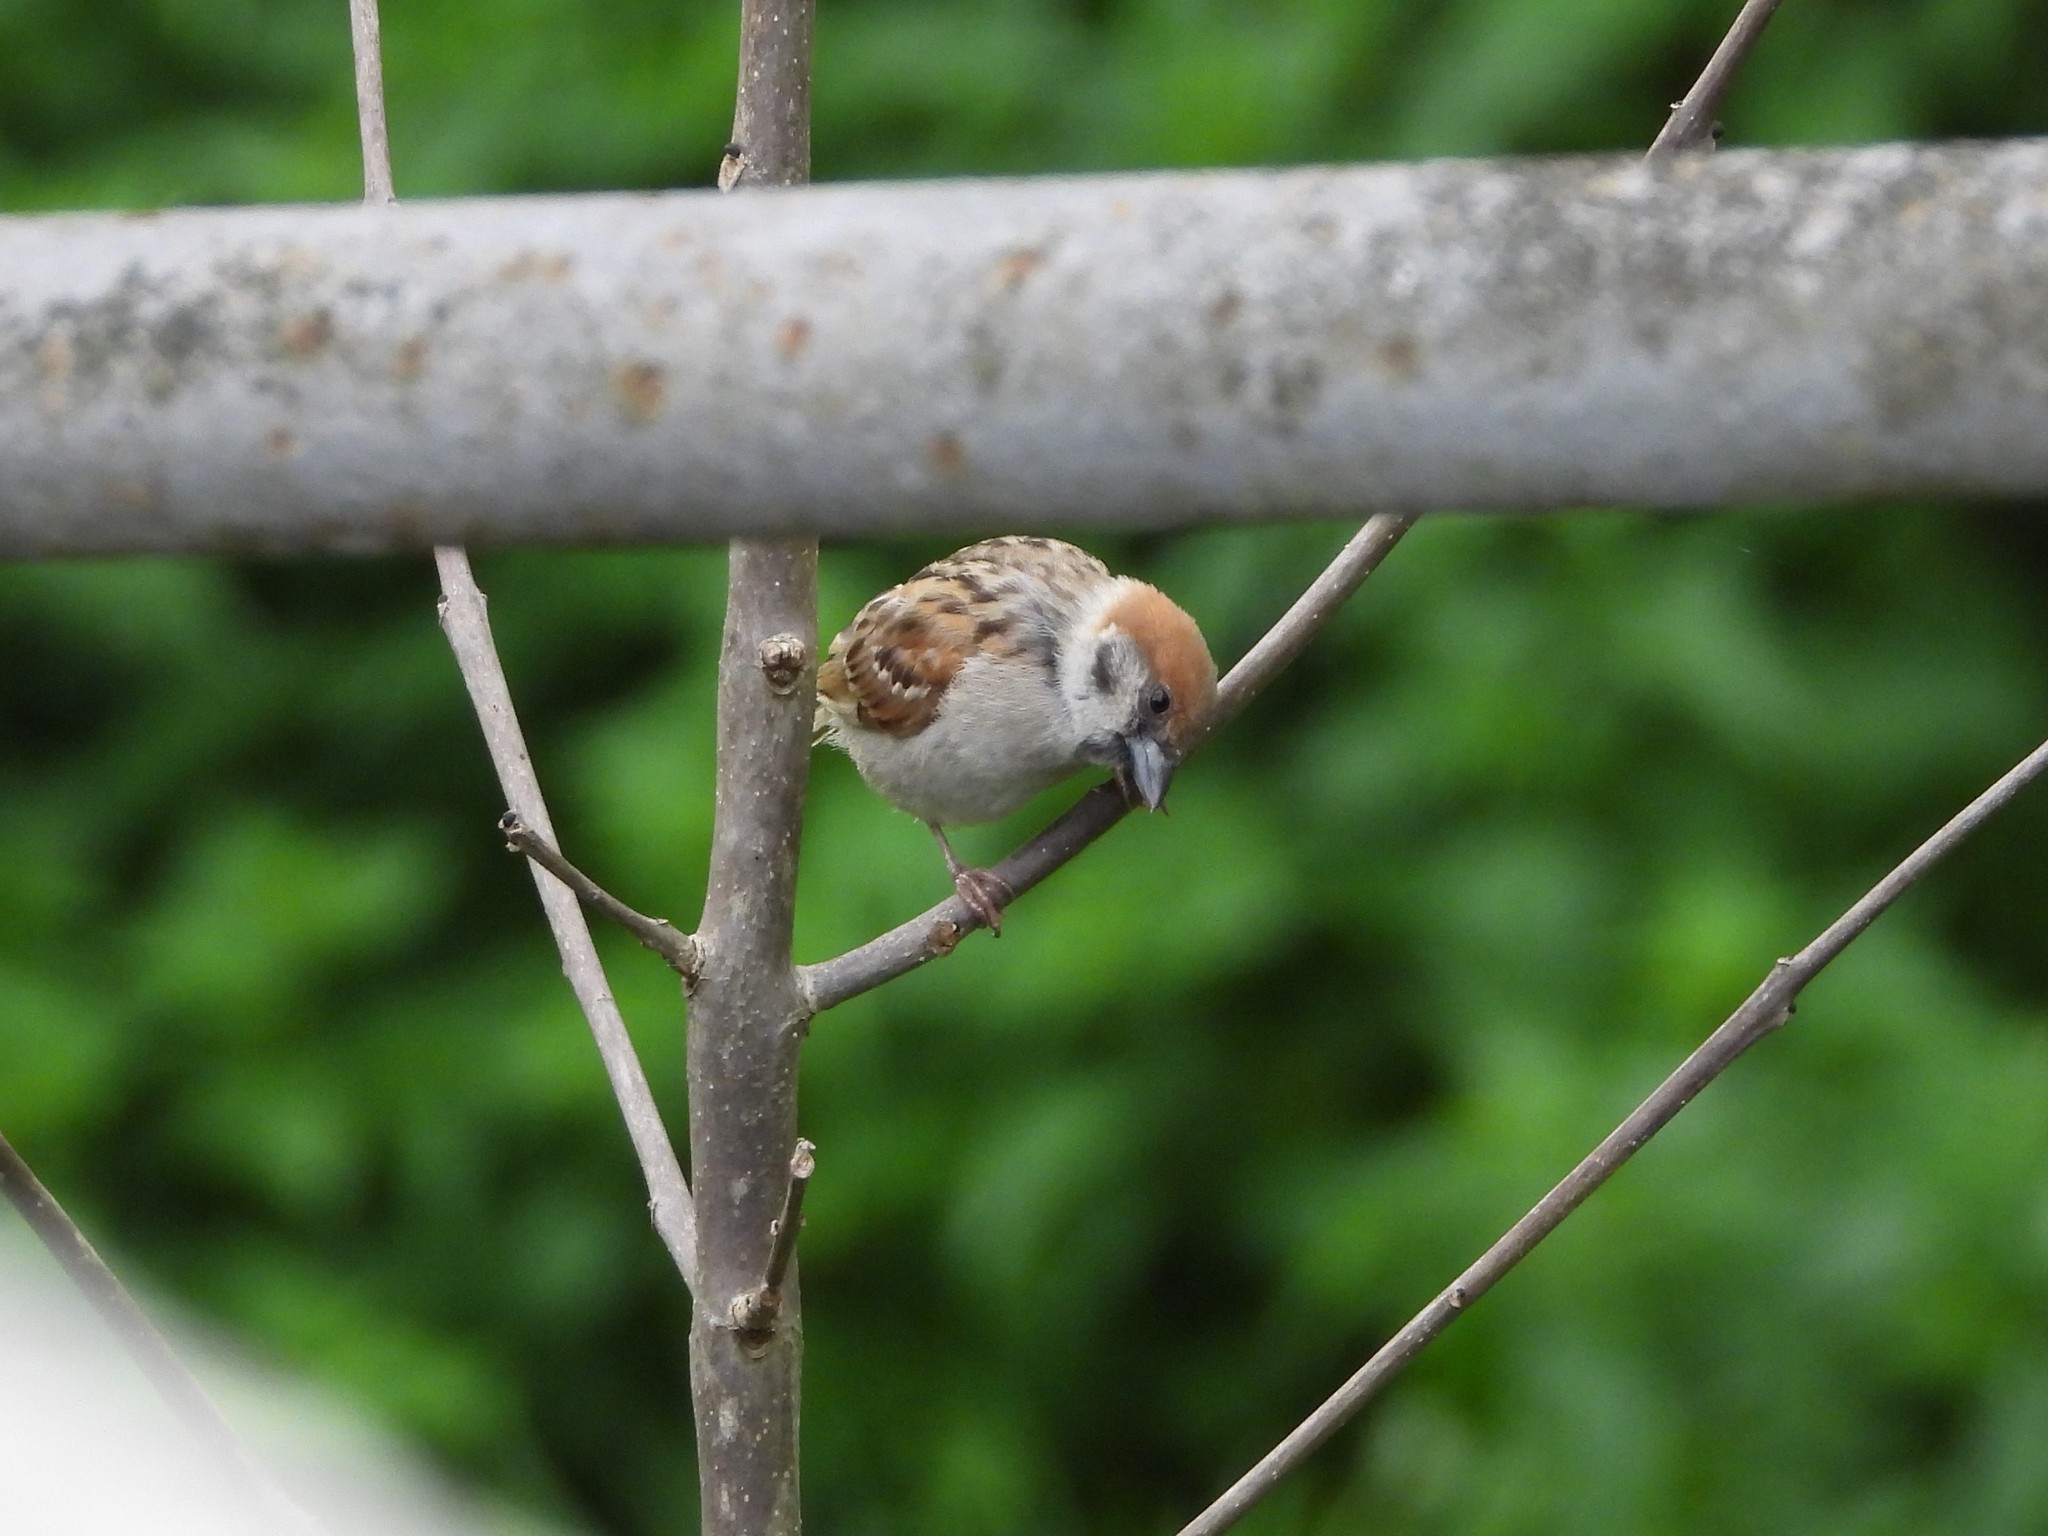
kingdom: Animalia
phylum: Chordata
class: Aves
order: Passeriformes
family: Passeridae
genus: Passer
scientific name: Passer montanus
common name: Eurasian tree sparrow
